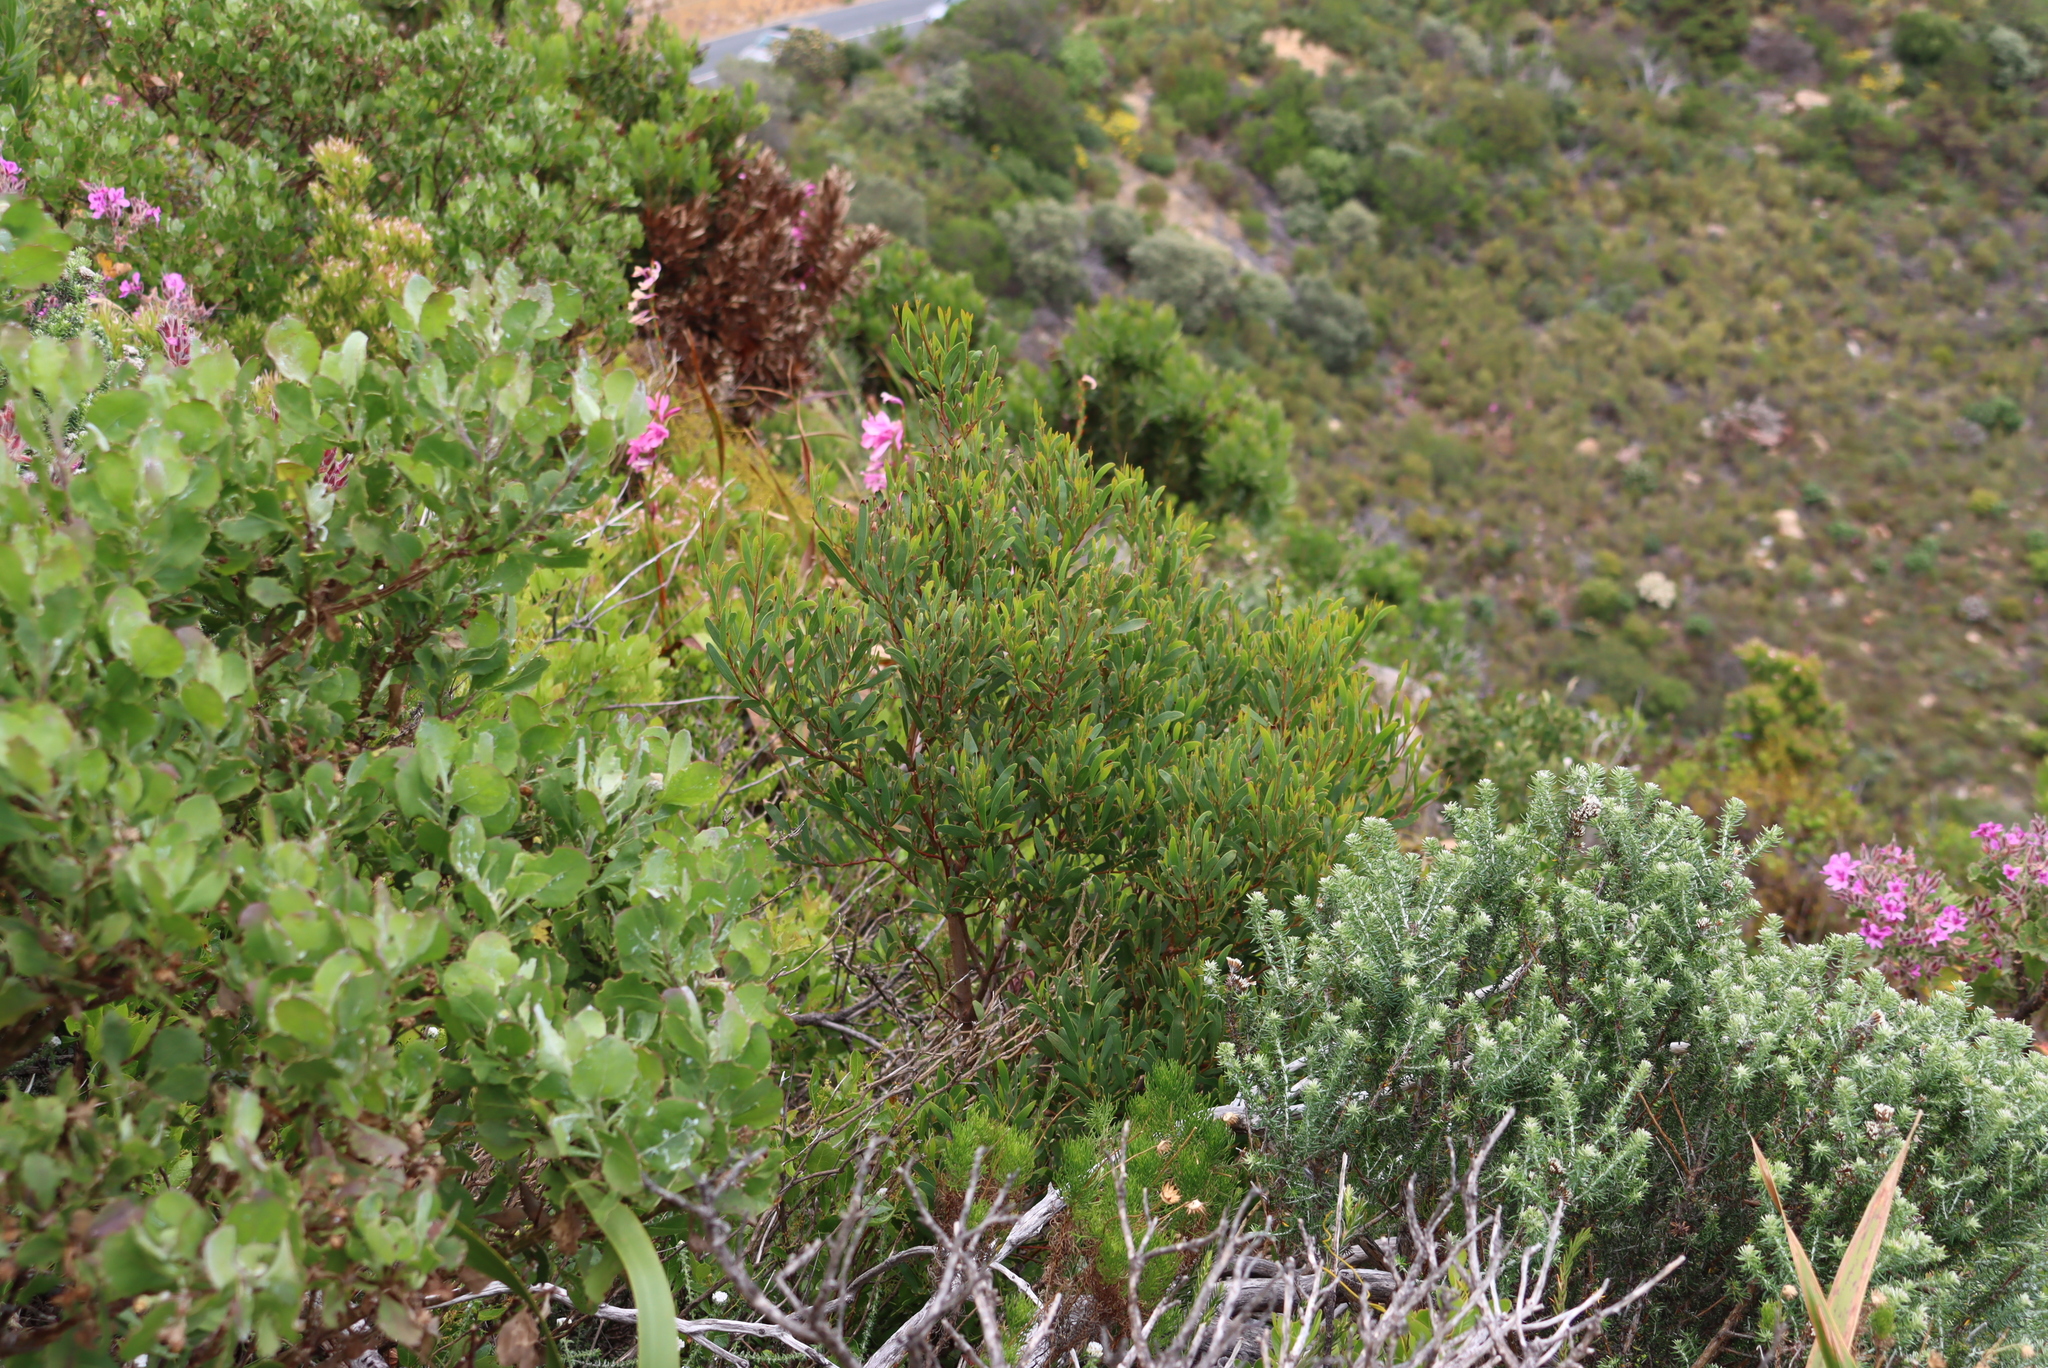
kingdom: Plantae
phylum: Tracheophyta
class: Magnoliopsida
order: Fabales
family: Fabaceae
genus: Acacia
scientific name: Acacia cyclops
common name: Coastal wattle
